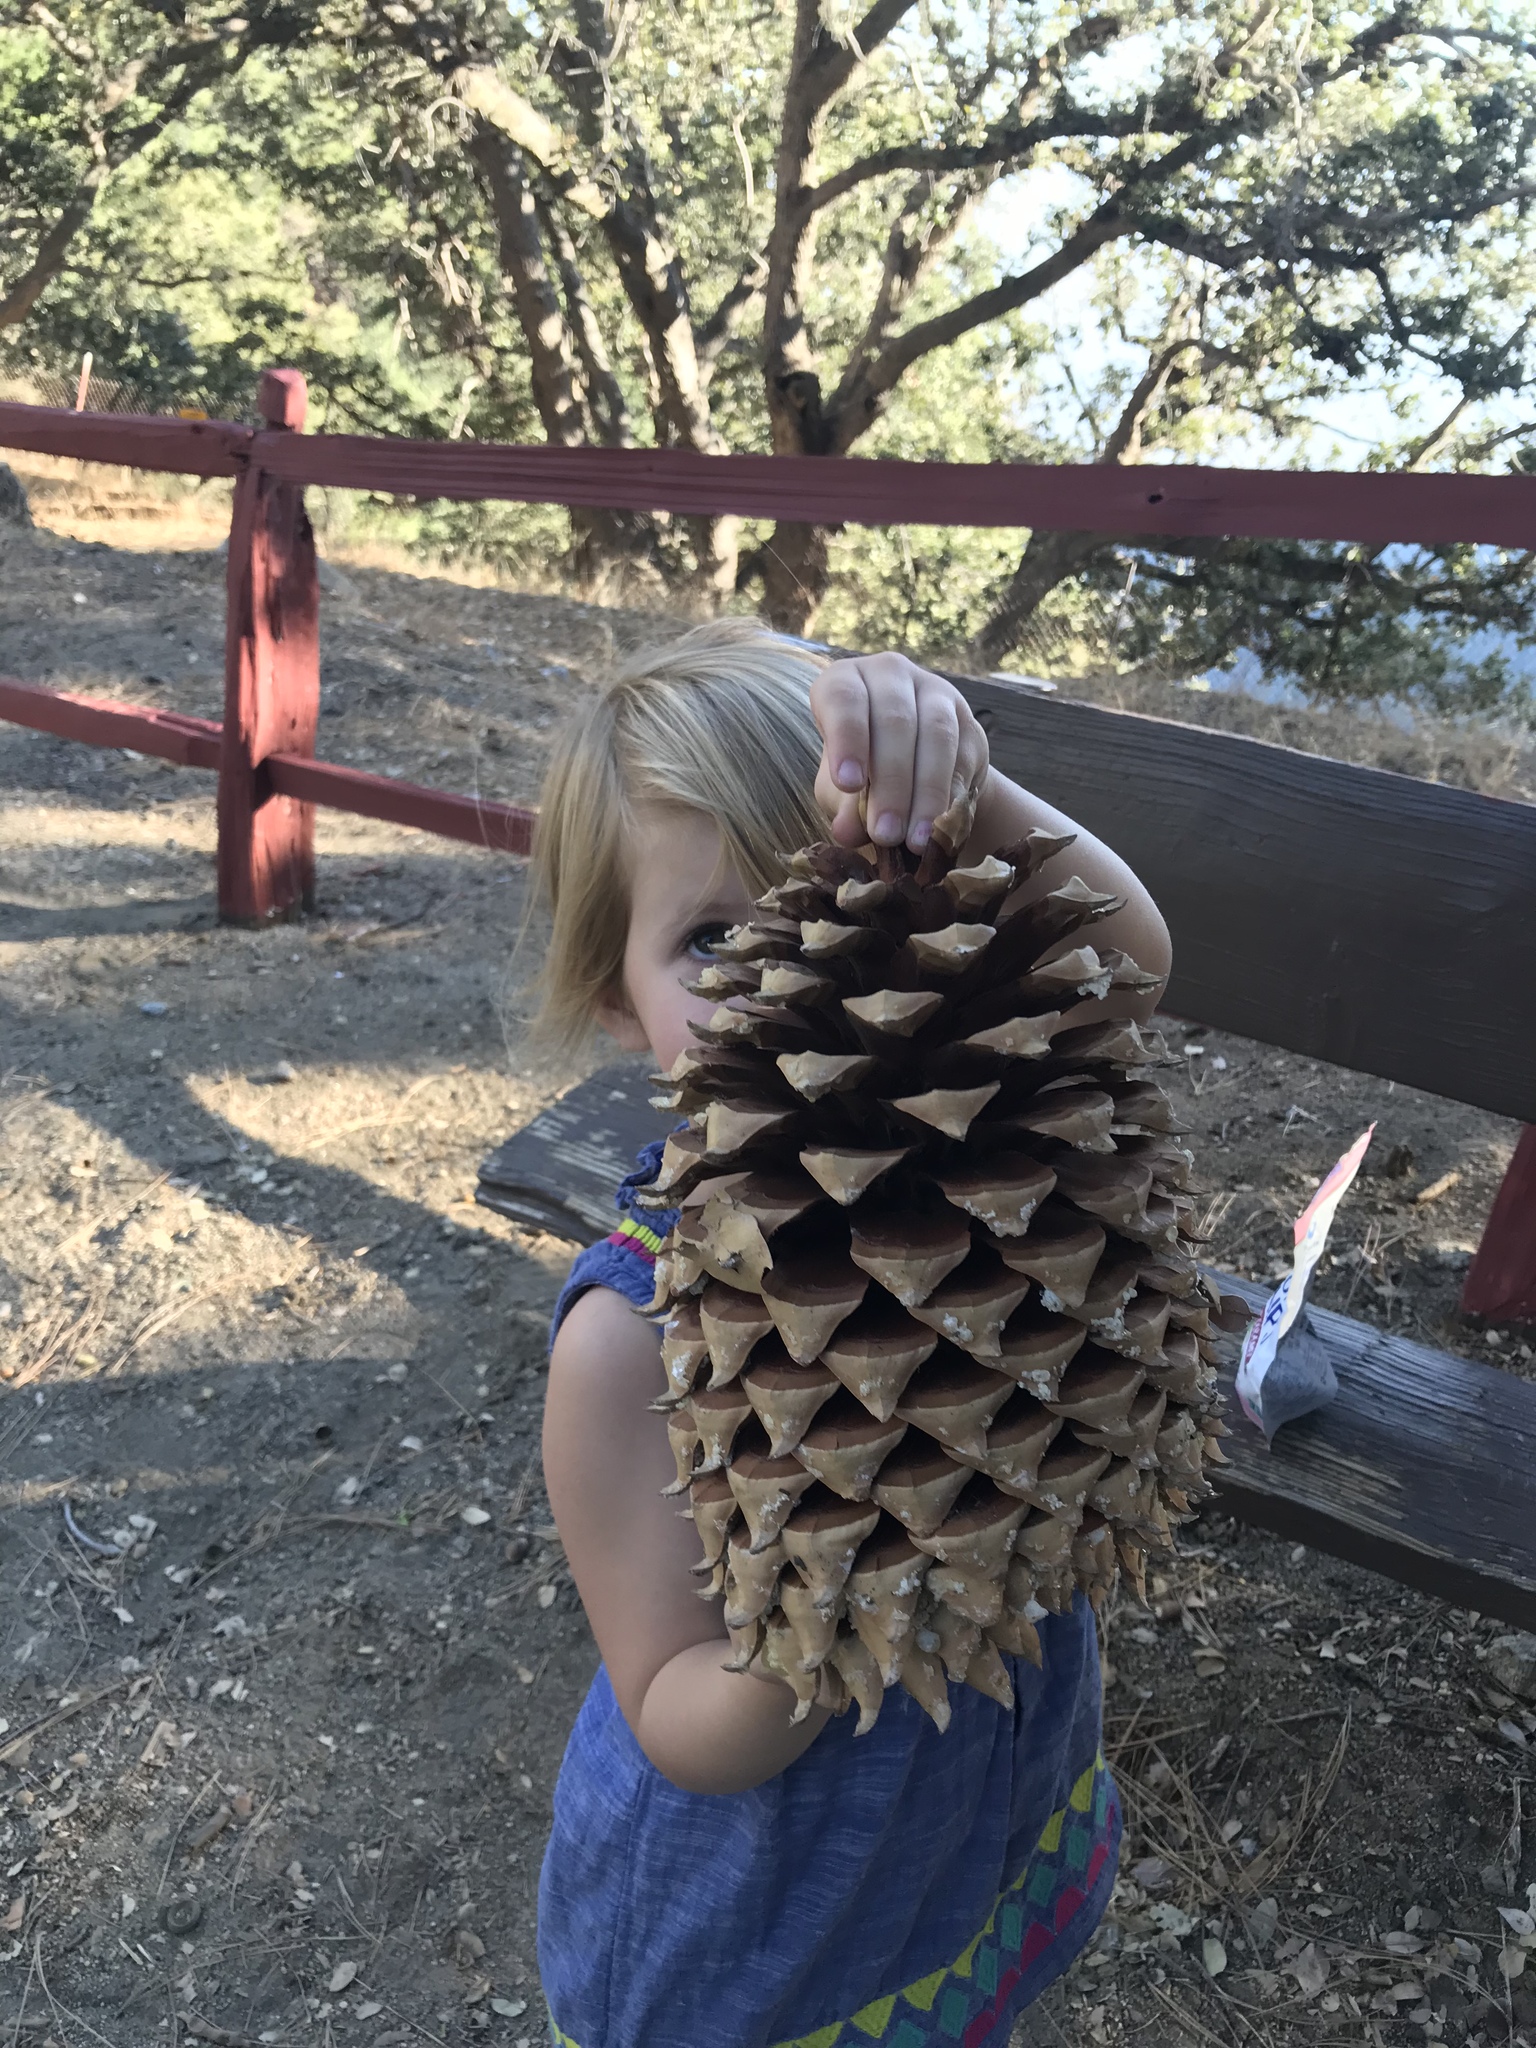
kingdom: Plantae
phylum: Tracheophyta
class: Pinopsida
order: Pinales
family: Pinaceae
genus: Pinus
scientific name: Pinus coulteri
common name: Coulter pine
